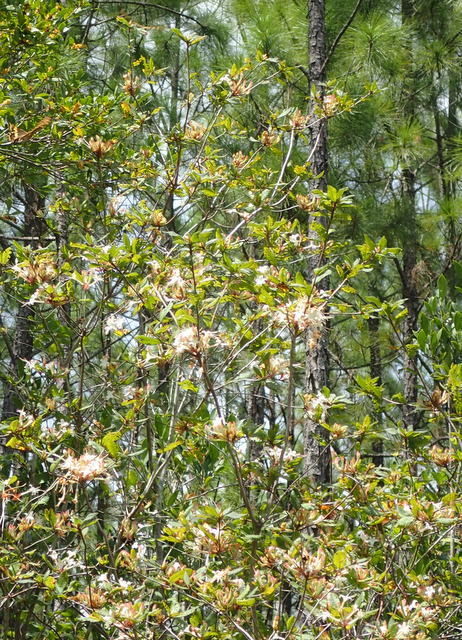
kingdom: Plantae
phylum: Tracheophyta
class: Magnoliopsida
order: Ericales
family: Ericaceae
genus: Rhododendron
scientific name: Rhododendron serrulatum
